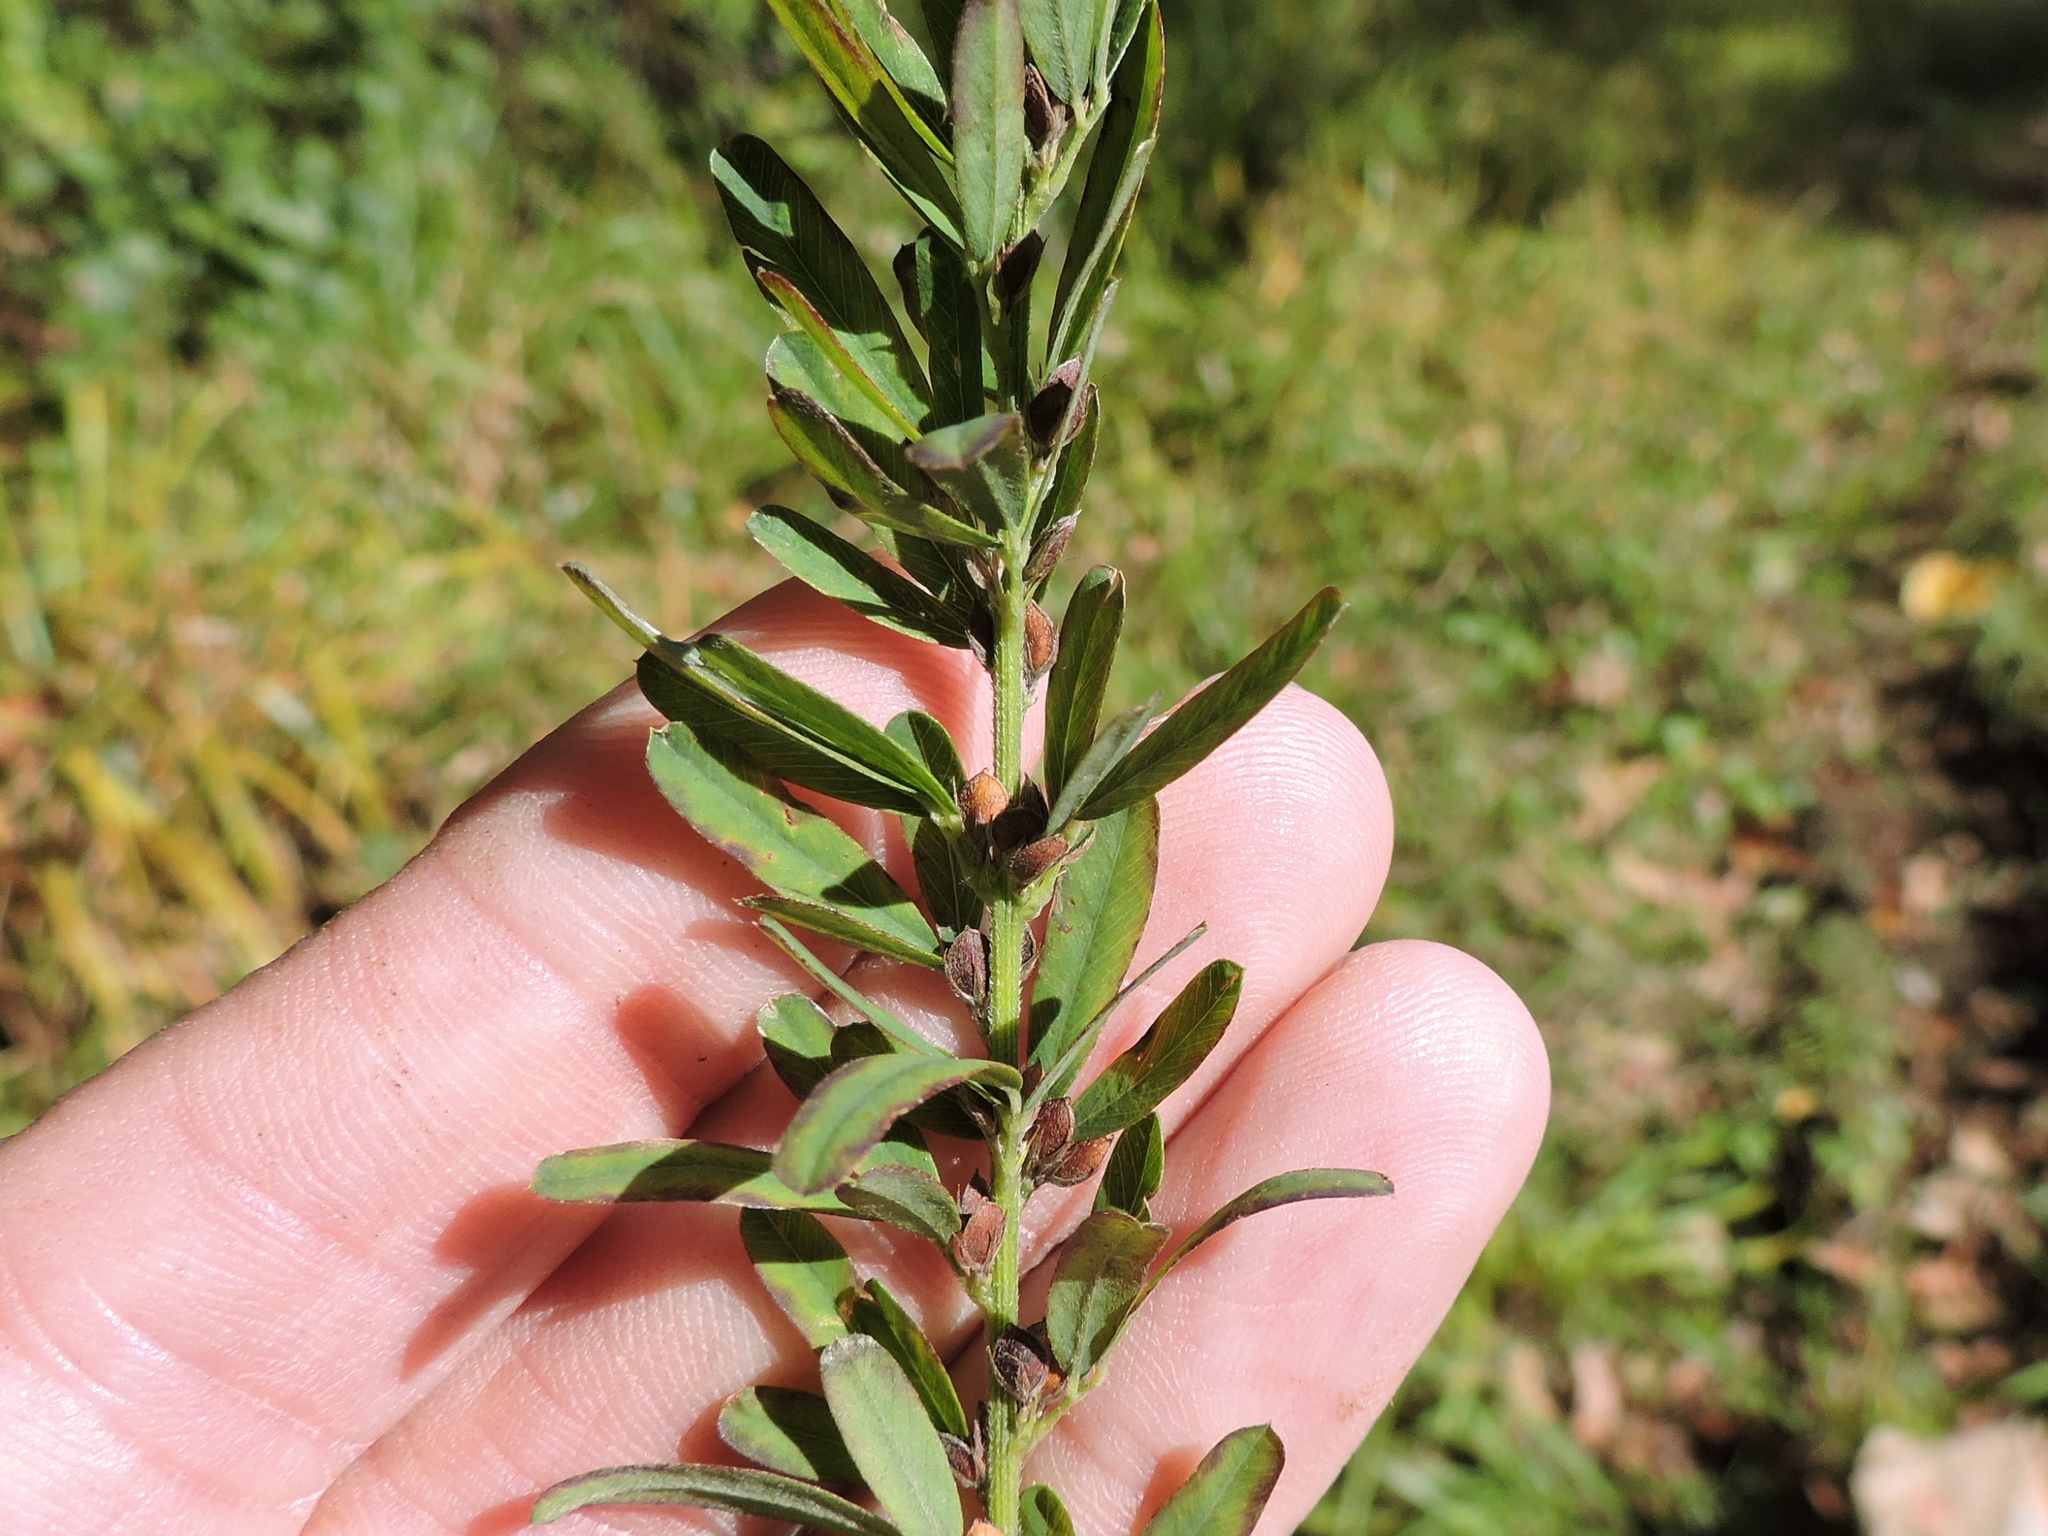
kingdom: Plantae
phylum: Tracheophyta
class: Magnoliopsida
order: Fabales
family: Fabaceae
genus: Lespedeza
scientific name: Lespedeza cuneata
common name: Chinese bush-clover
